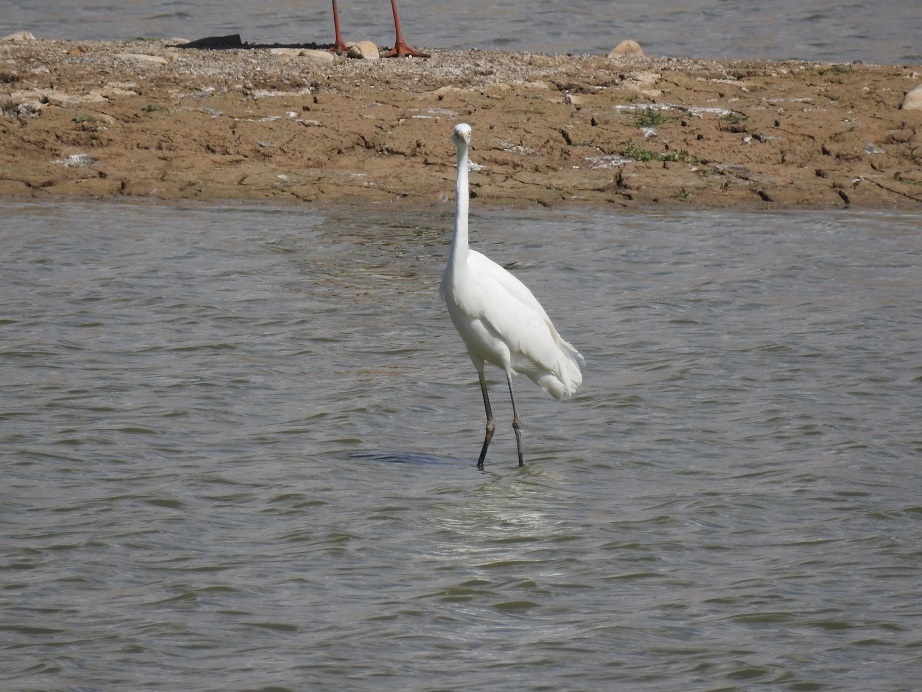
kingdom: Animalia
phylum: Chordata
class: Aves
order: Pelecaniformes
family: Ardeidae
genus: Ardea
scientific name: Ardea alba
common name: Great egret
